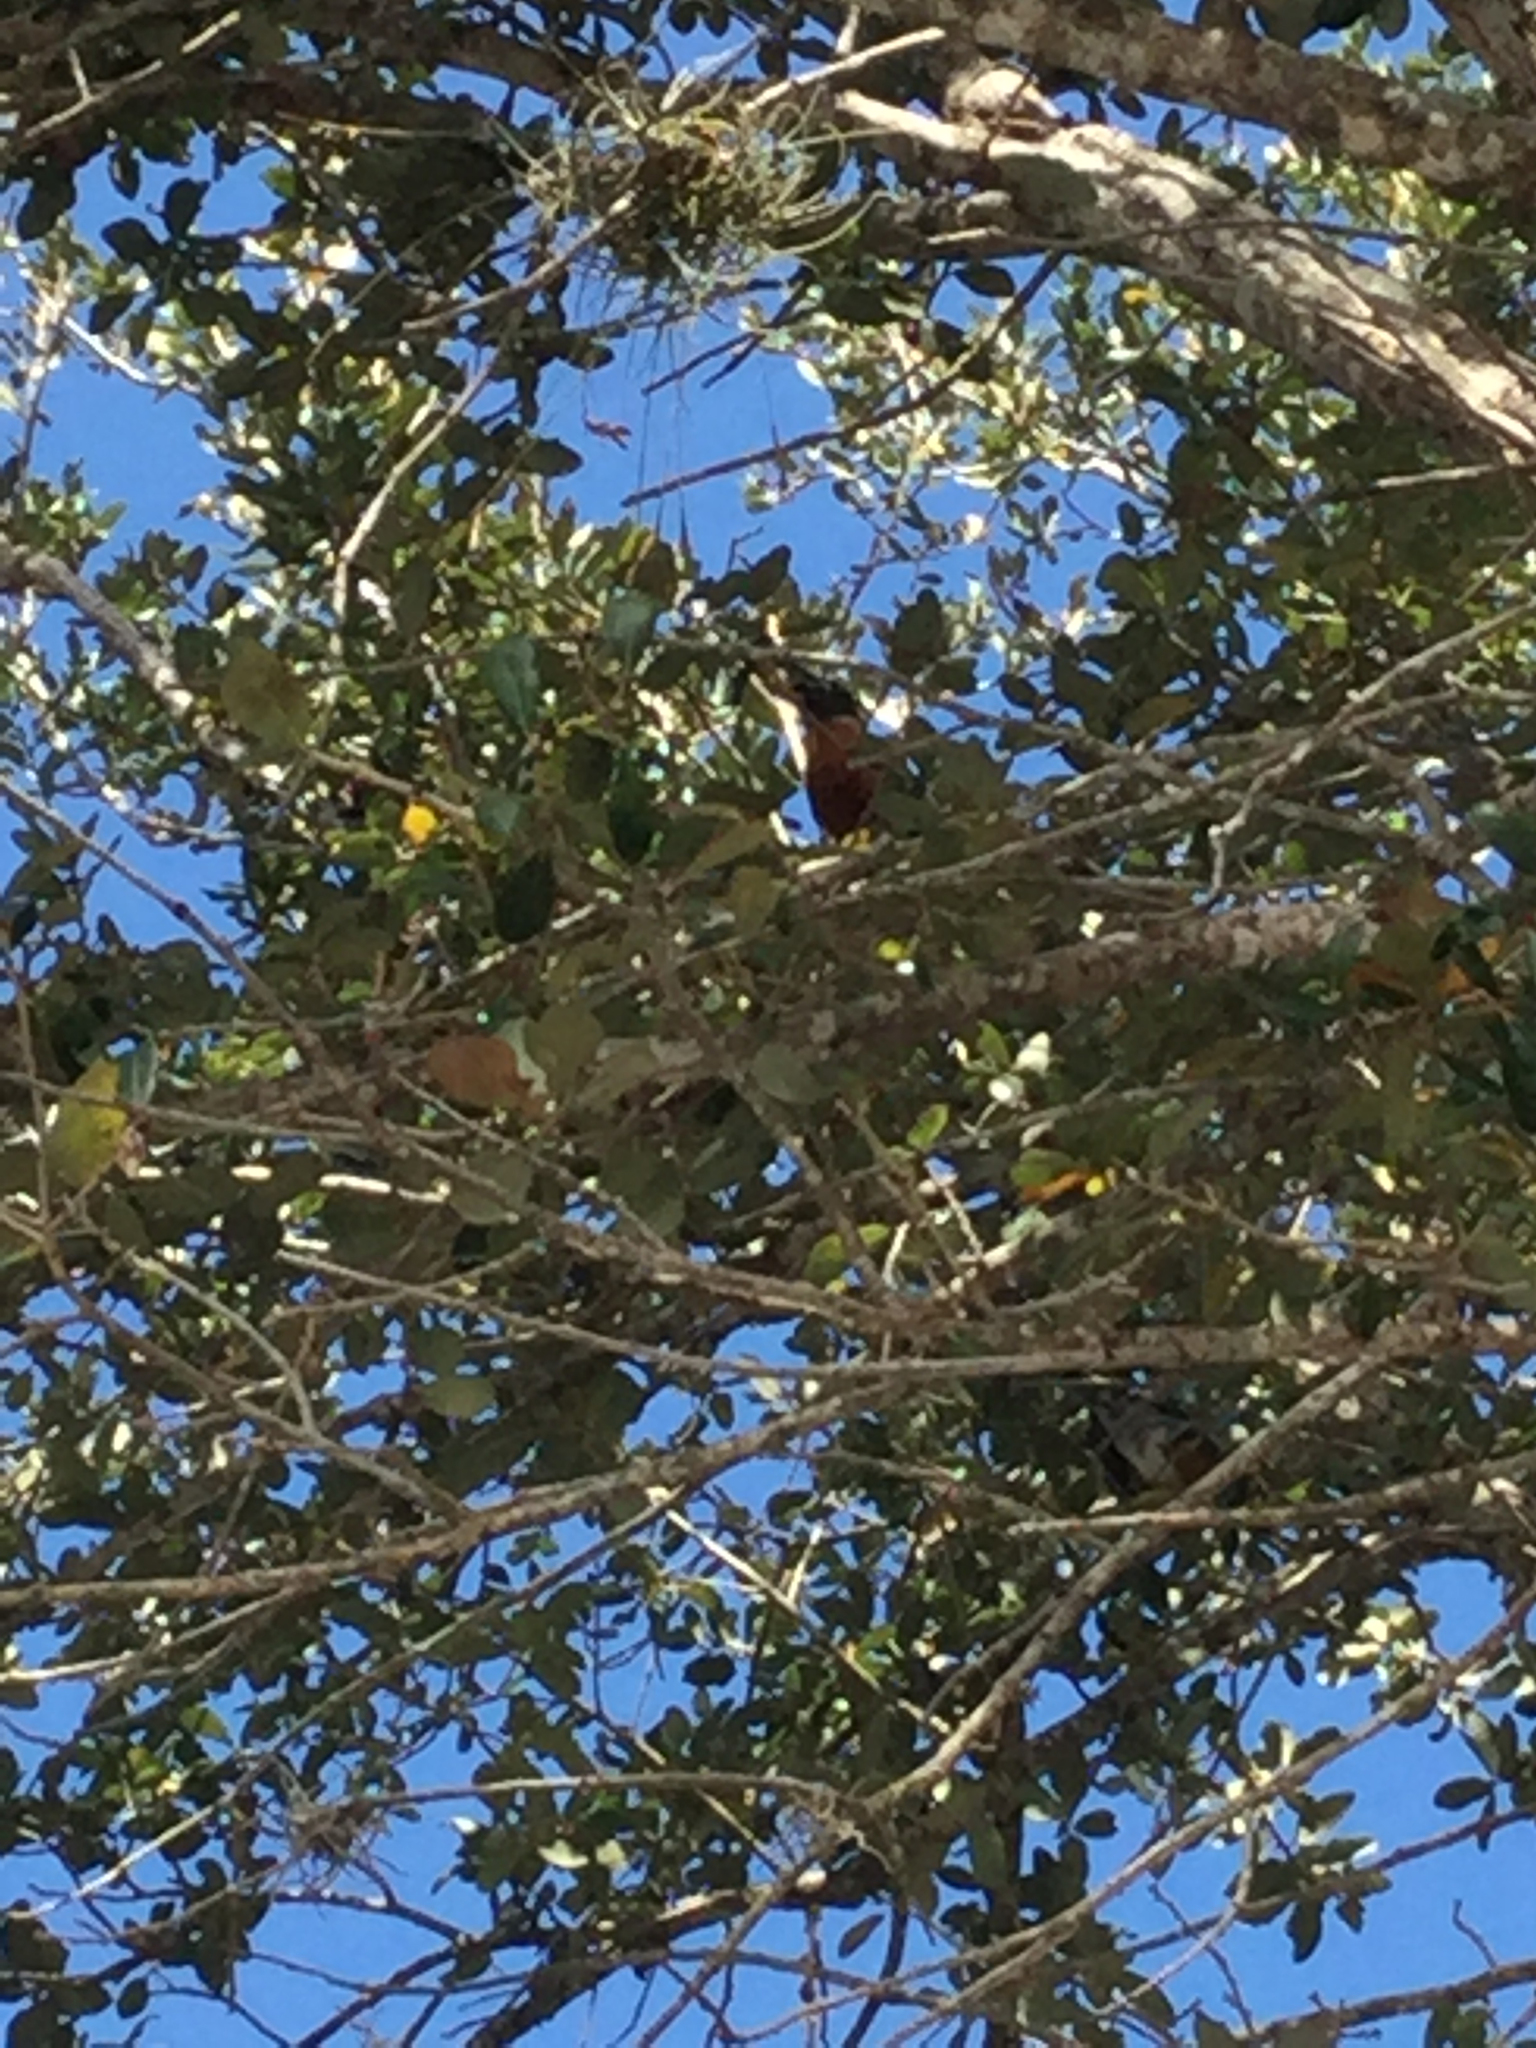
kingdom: Animalia
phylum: Chordata
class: Aves
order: Passeriformes
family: Turdidae
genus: Turdus
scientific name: Turdus migratorius
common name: American robin
